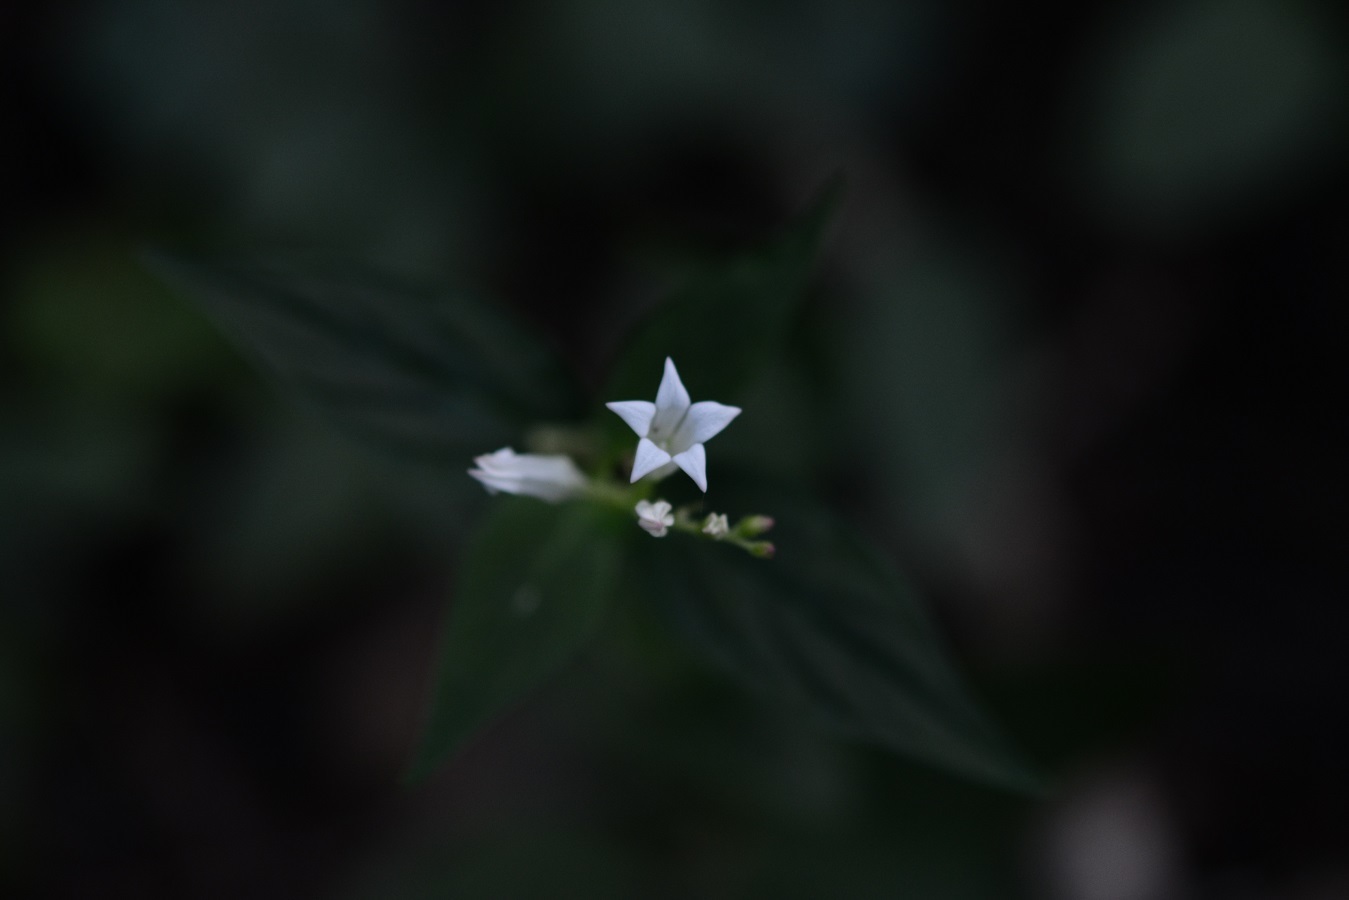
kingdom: Plantae
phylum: Tracheophyta
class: Magnoliopsida
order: Gentianales
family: Loganiaceae
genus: Spigelia
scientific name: Spigelia humboldtiana
